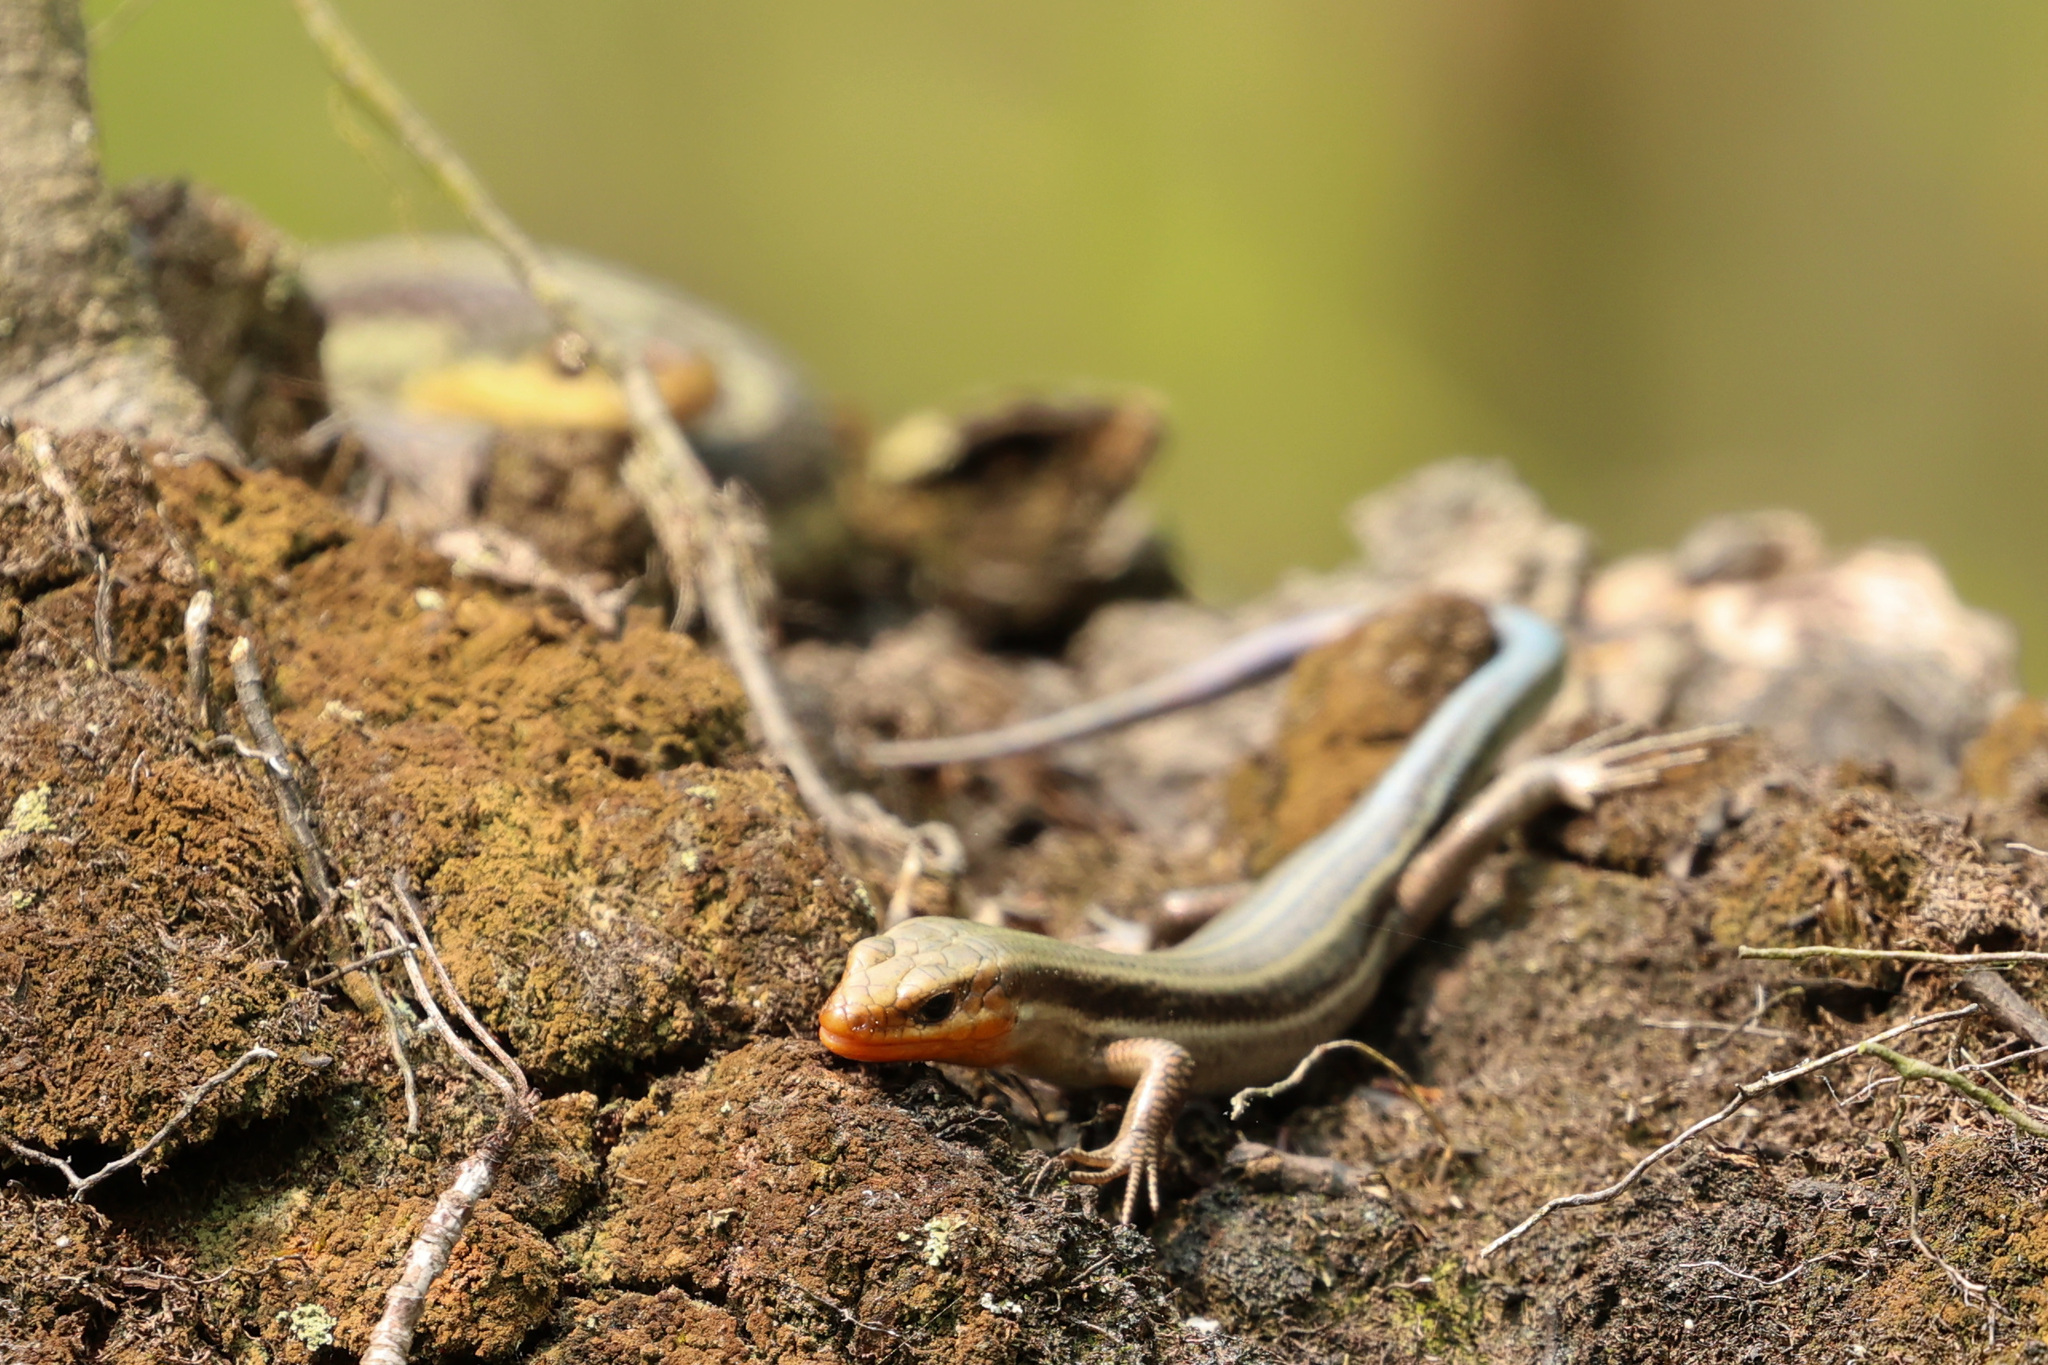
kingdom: Animalia
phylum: Chordata
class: Squamata
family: Scincidae
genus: Plestiodon
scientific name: Plestiodon fasciatus
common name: Five-lined skink
